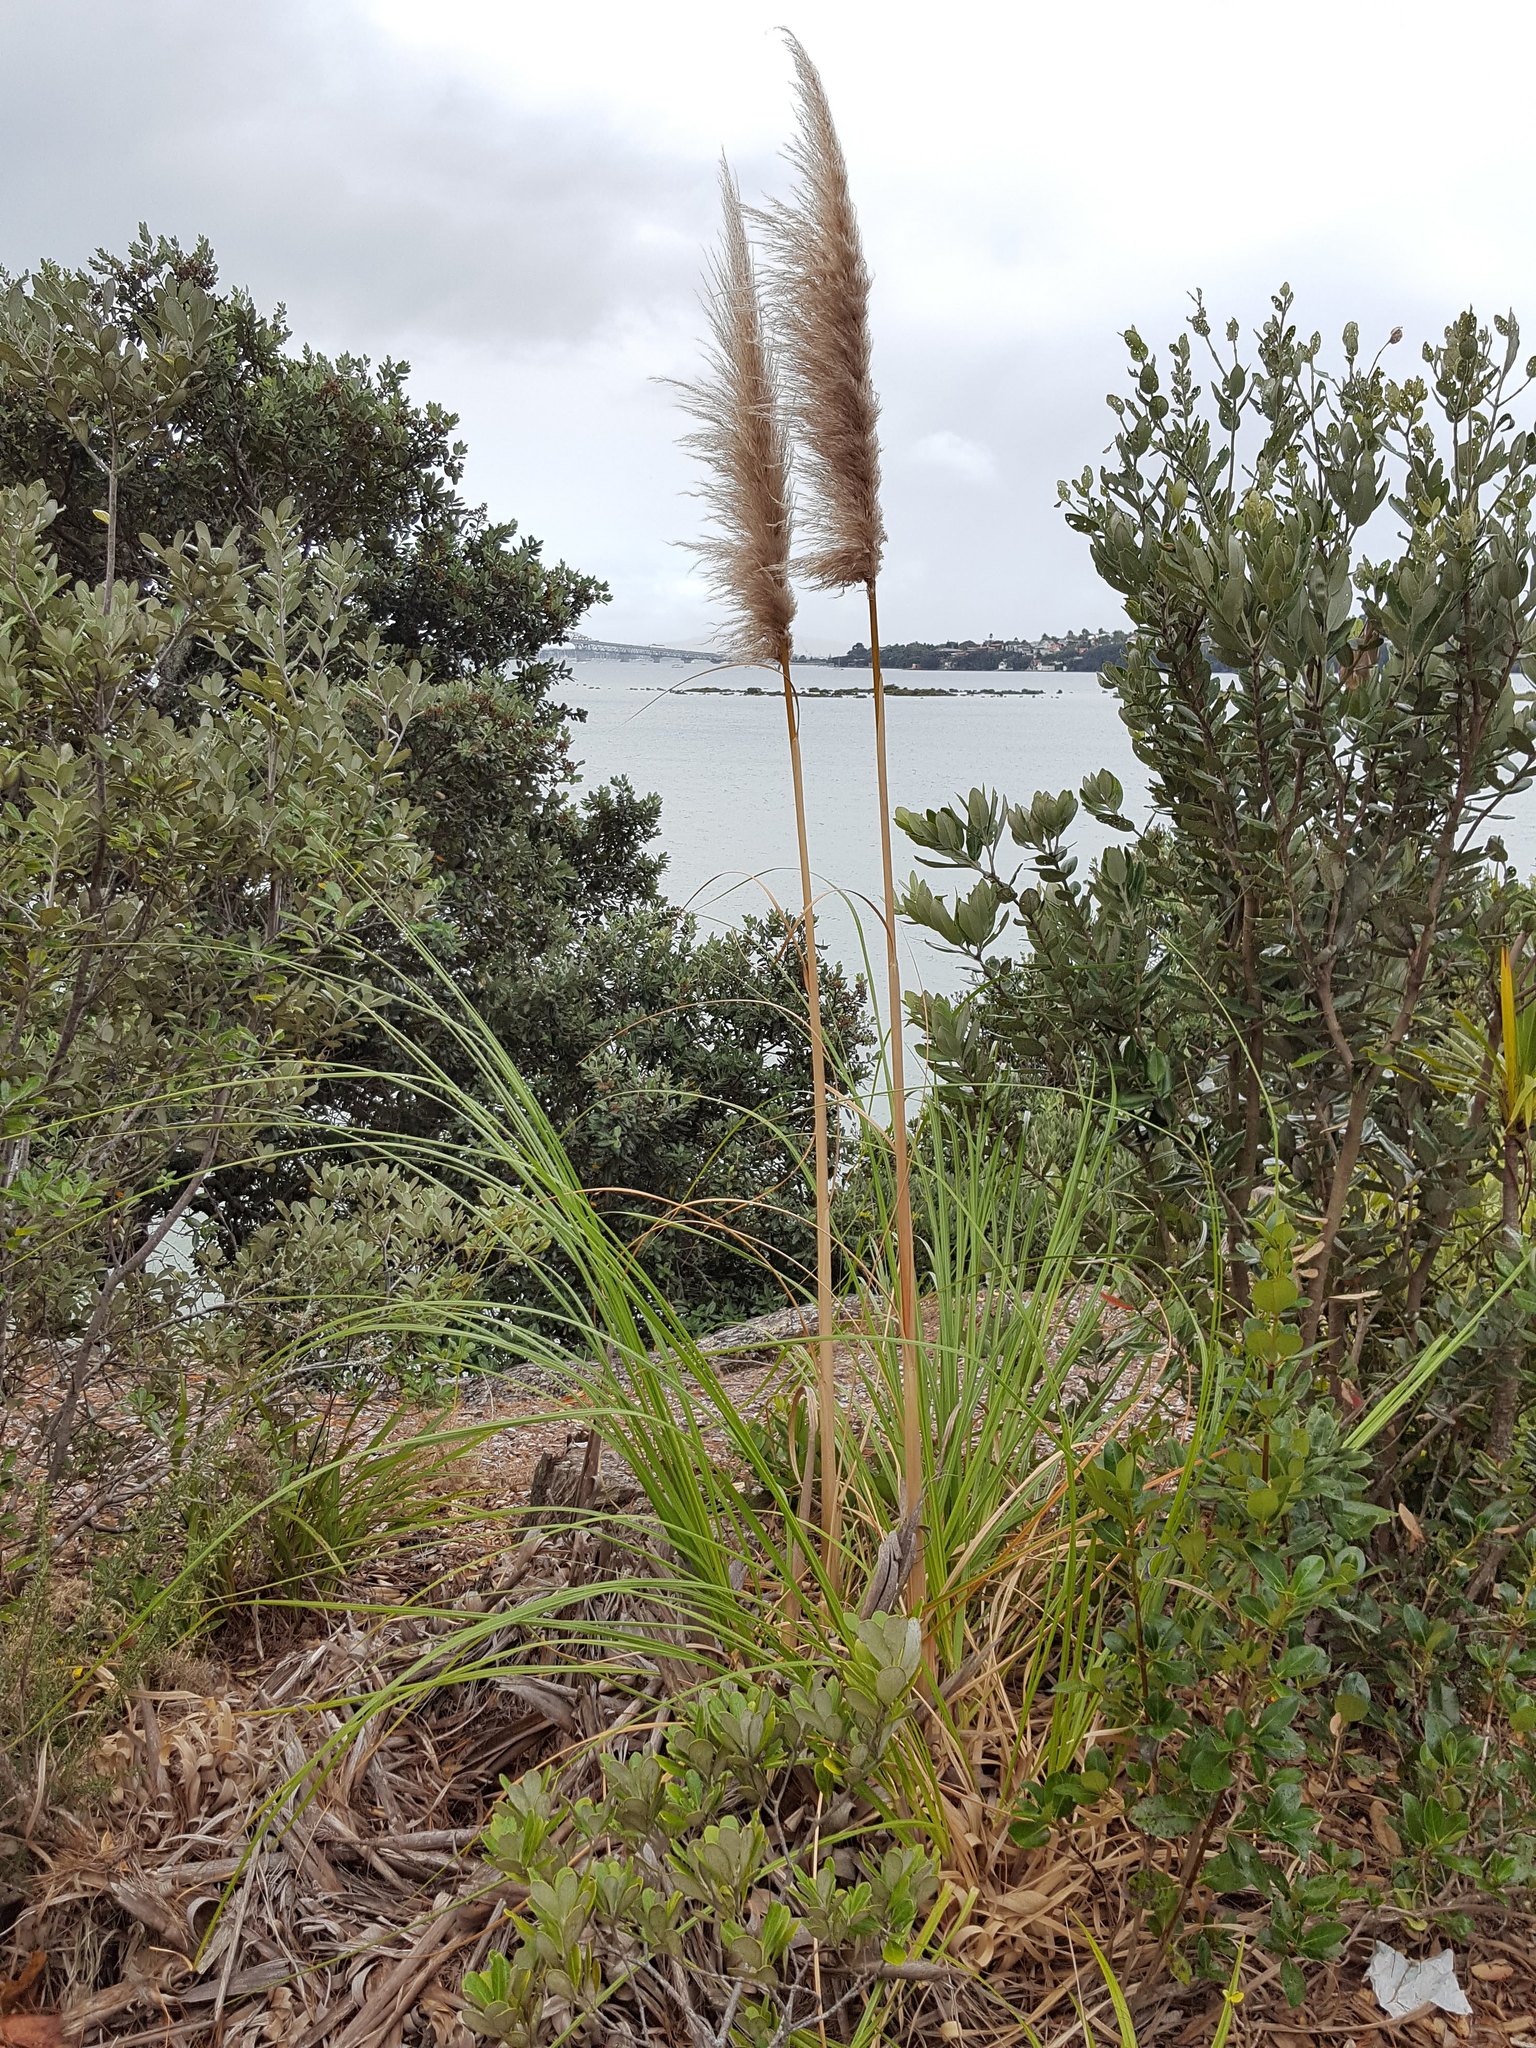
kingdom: Plantae
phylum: Tracheophyta
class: Liliopsida
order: Poales
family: Poaceae
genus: Cortaderia
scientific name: Cortaderia jubata
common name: Purple pampas grass
